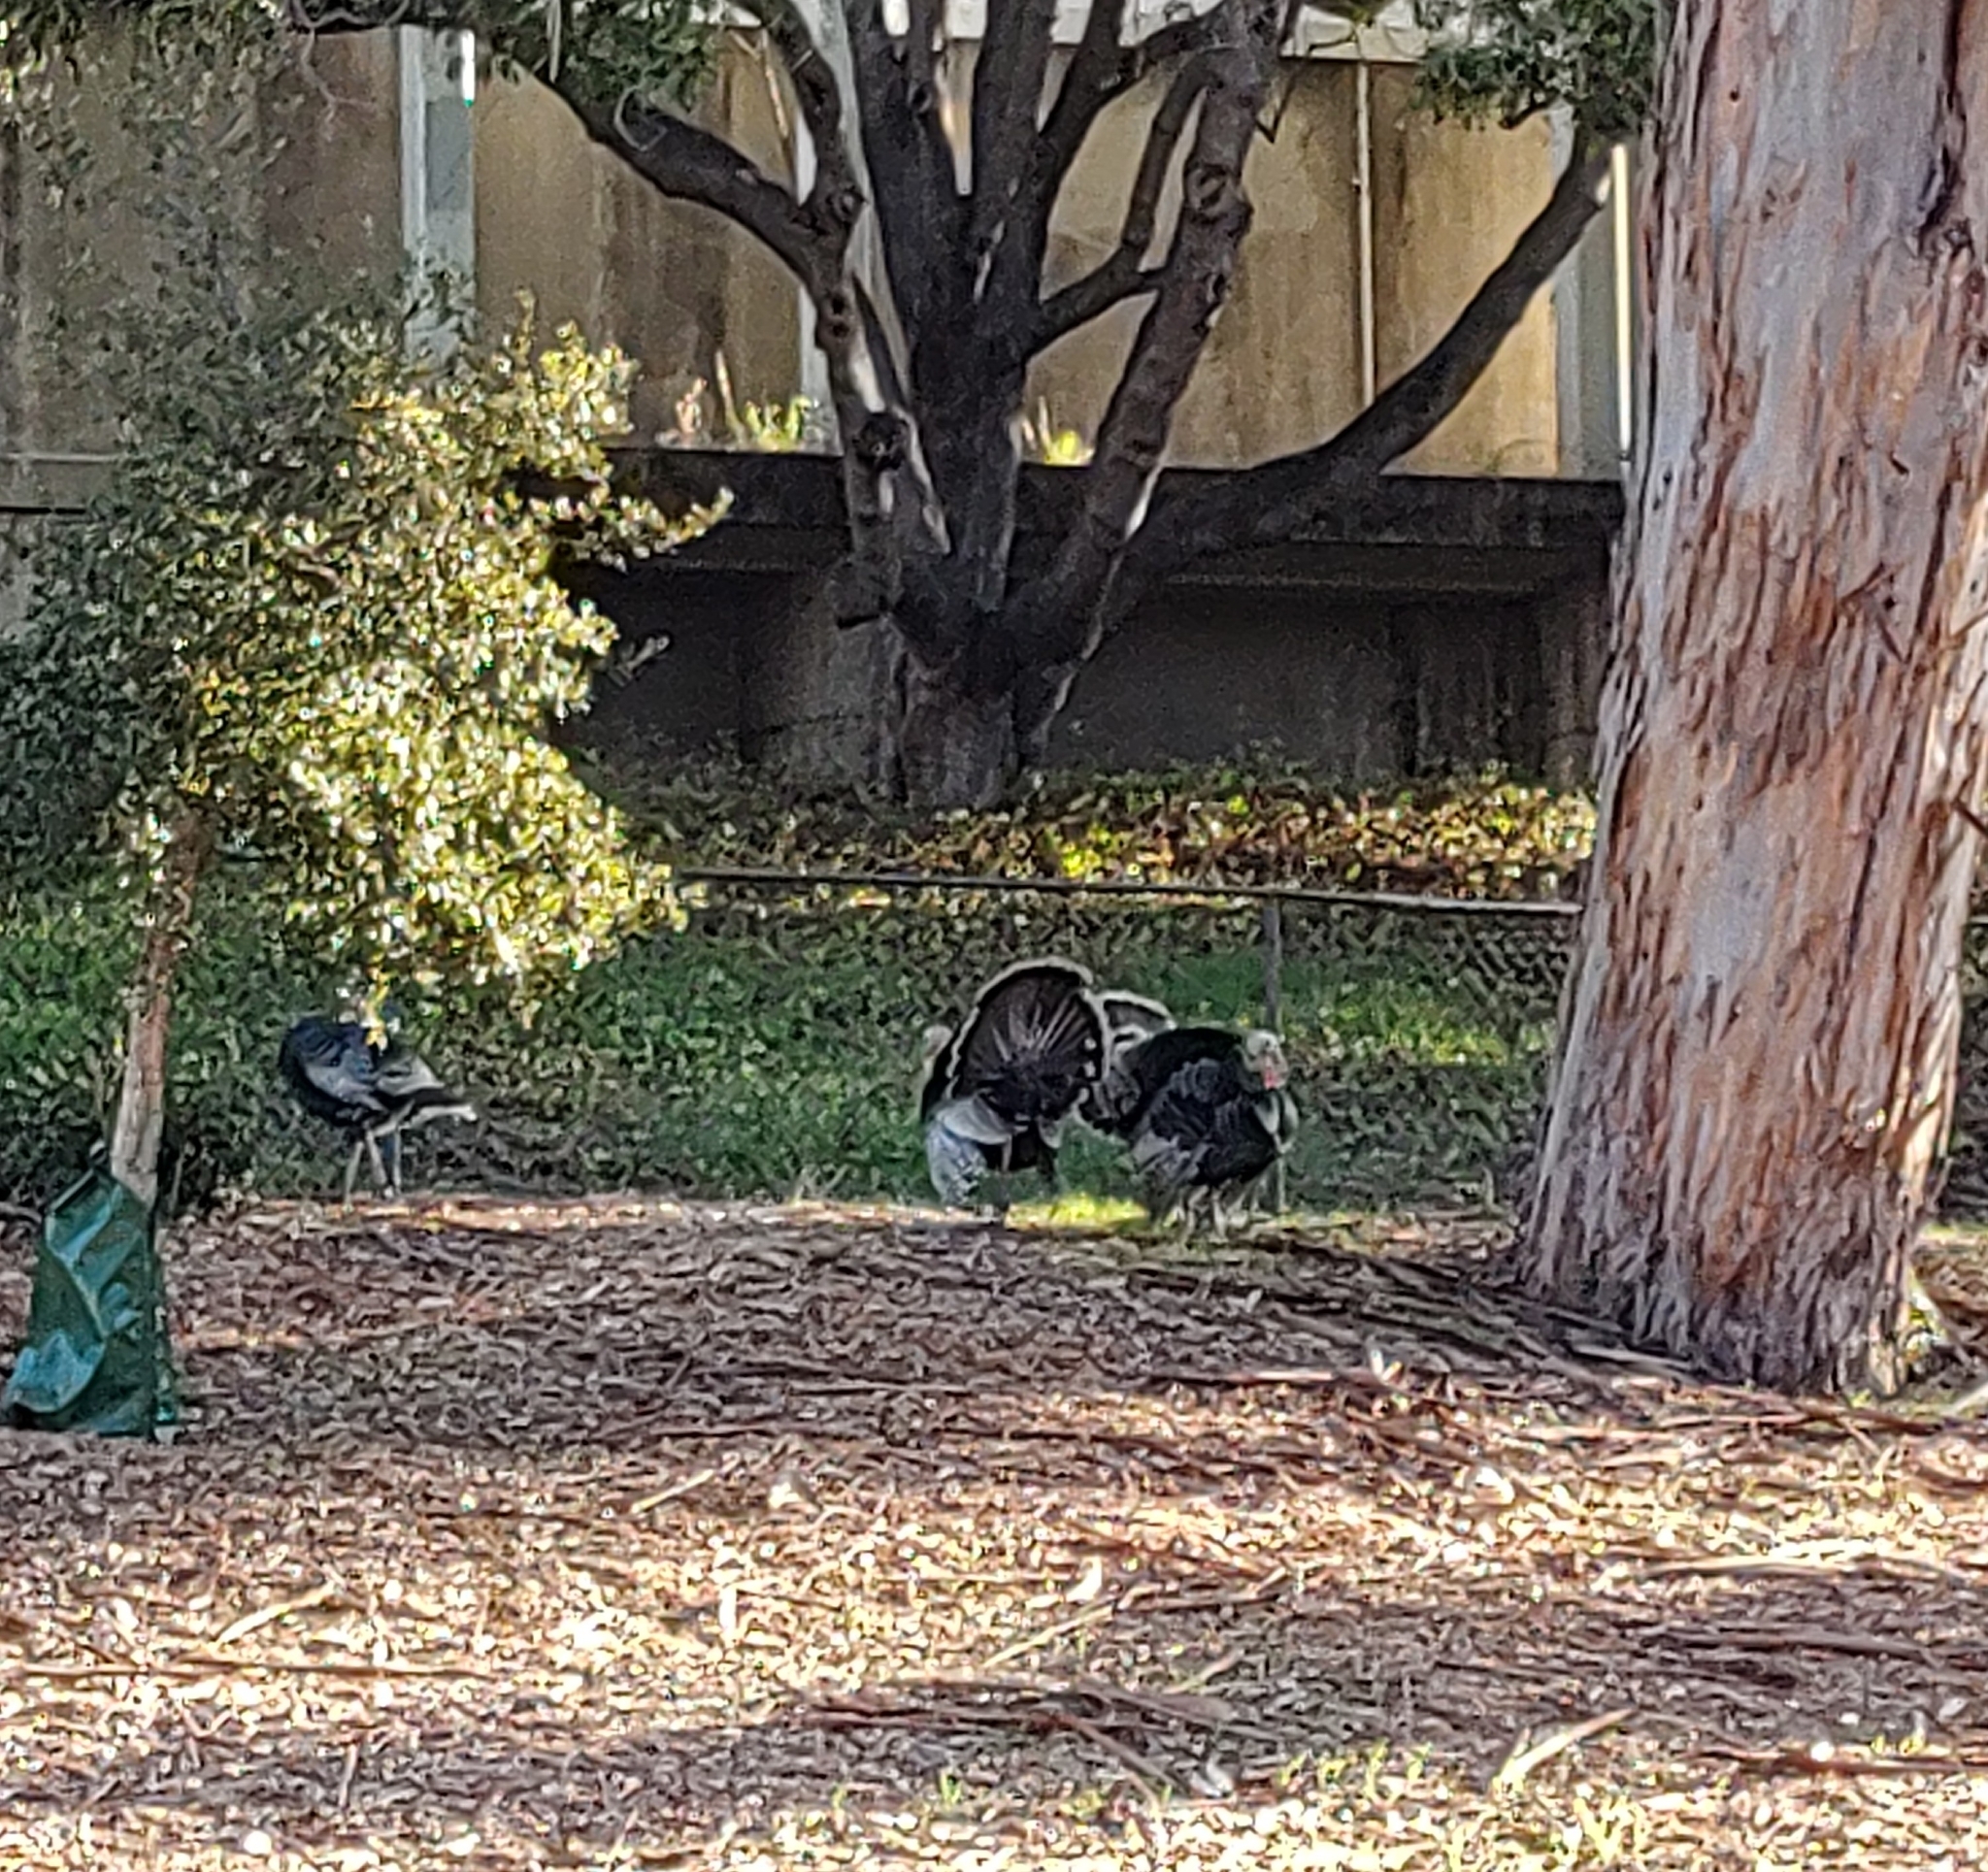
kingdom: Animalia
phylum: Chordata
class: Aves
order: Galliformes
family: Phasianidae
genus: Meleagris
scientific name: Meleagris gallopavo
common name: Wild turkey
